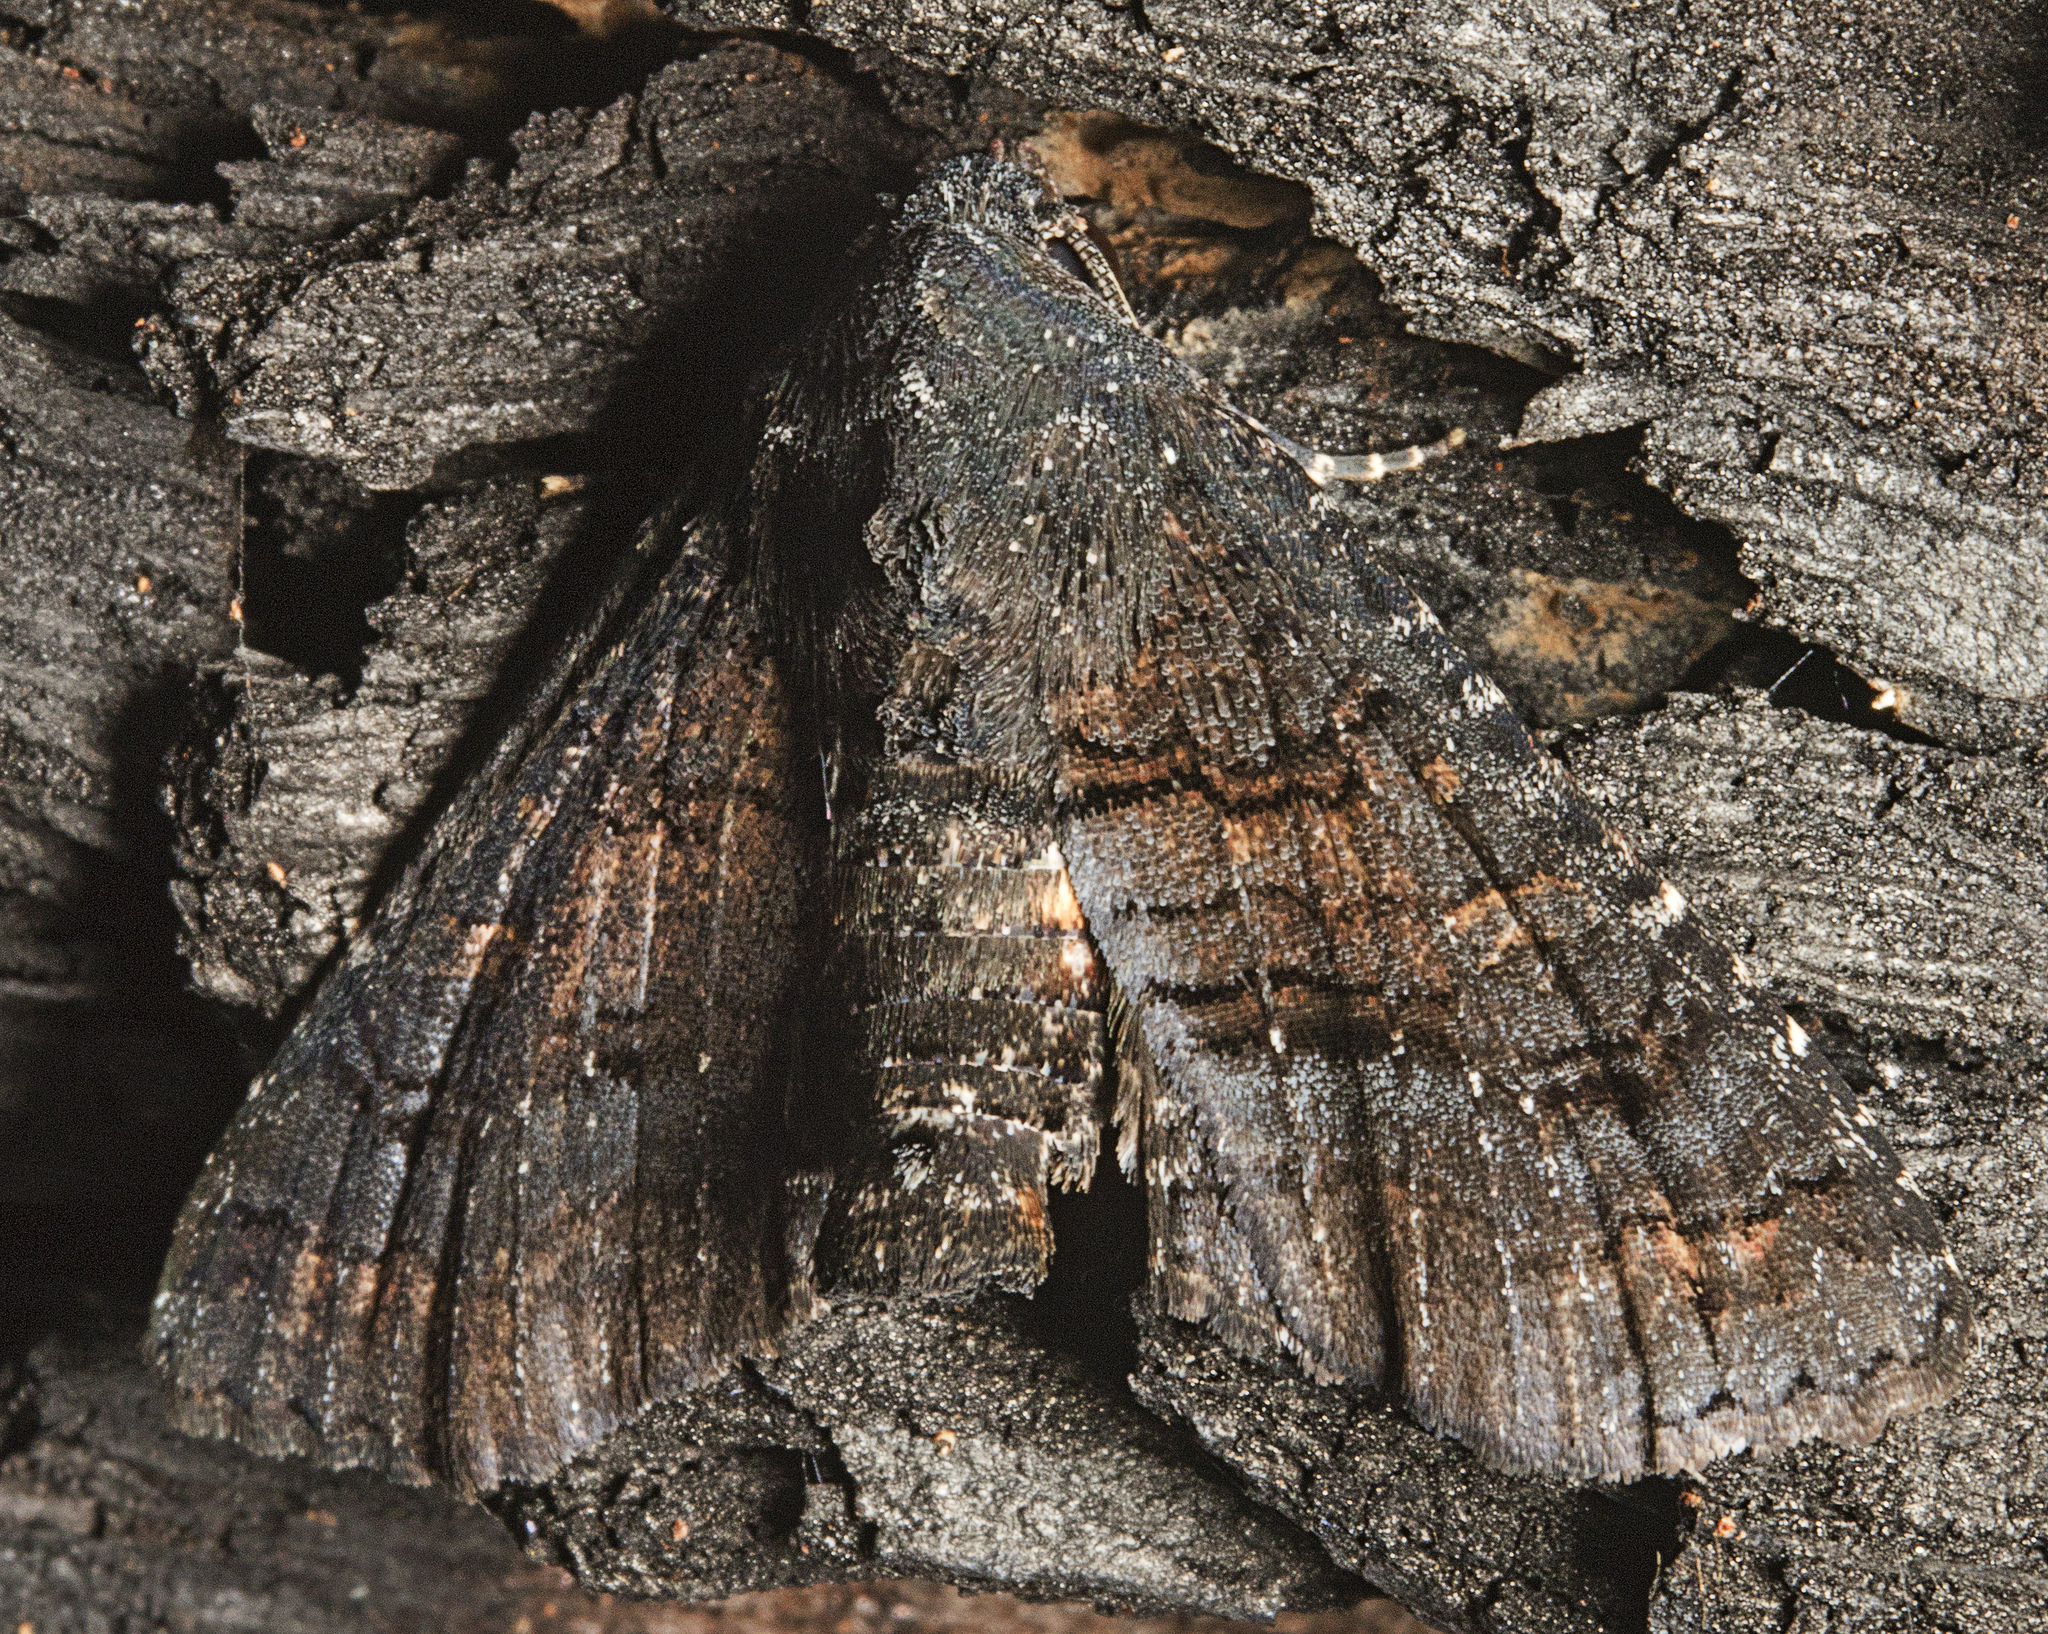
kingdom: Animalia
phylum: Arthropoda
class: Insecta
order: Lepidoptera
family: Euteliidae
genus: Pataeta
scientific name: Pataeta carbo
